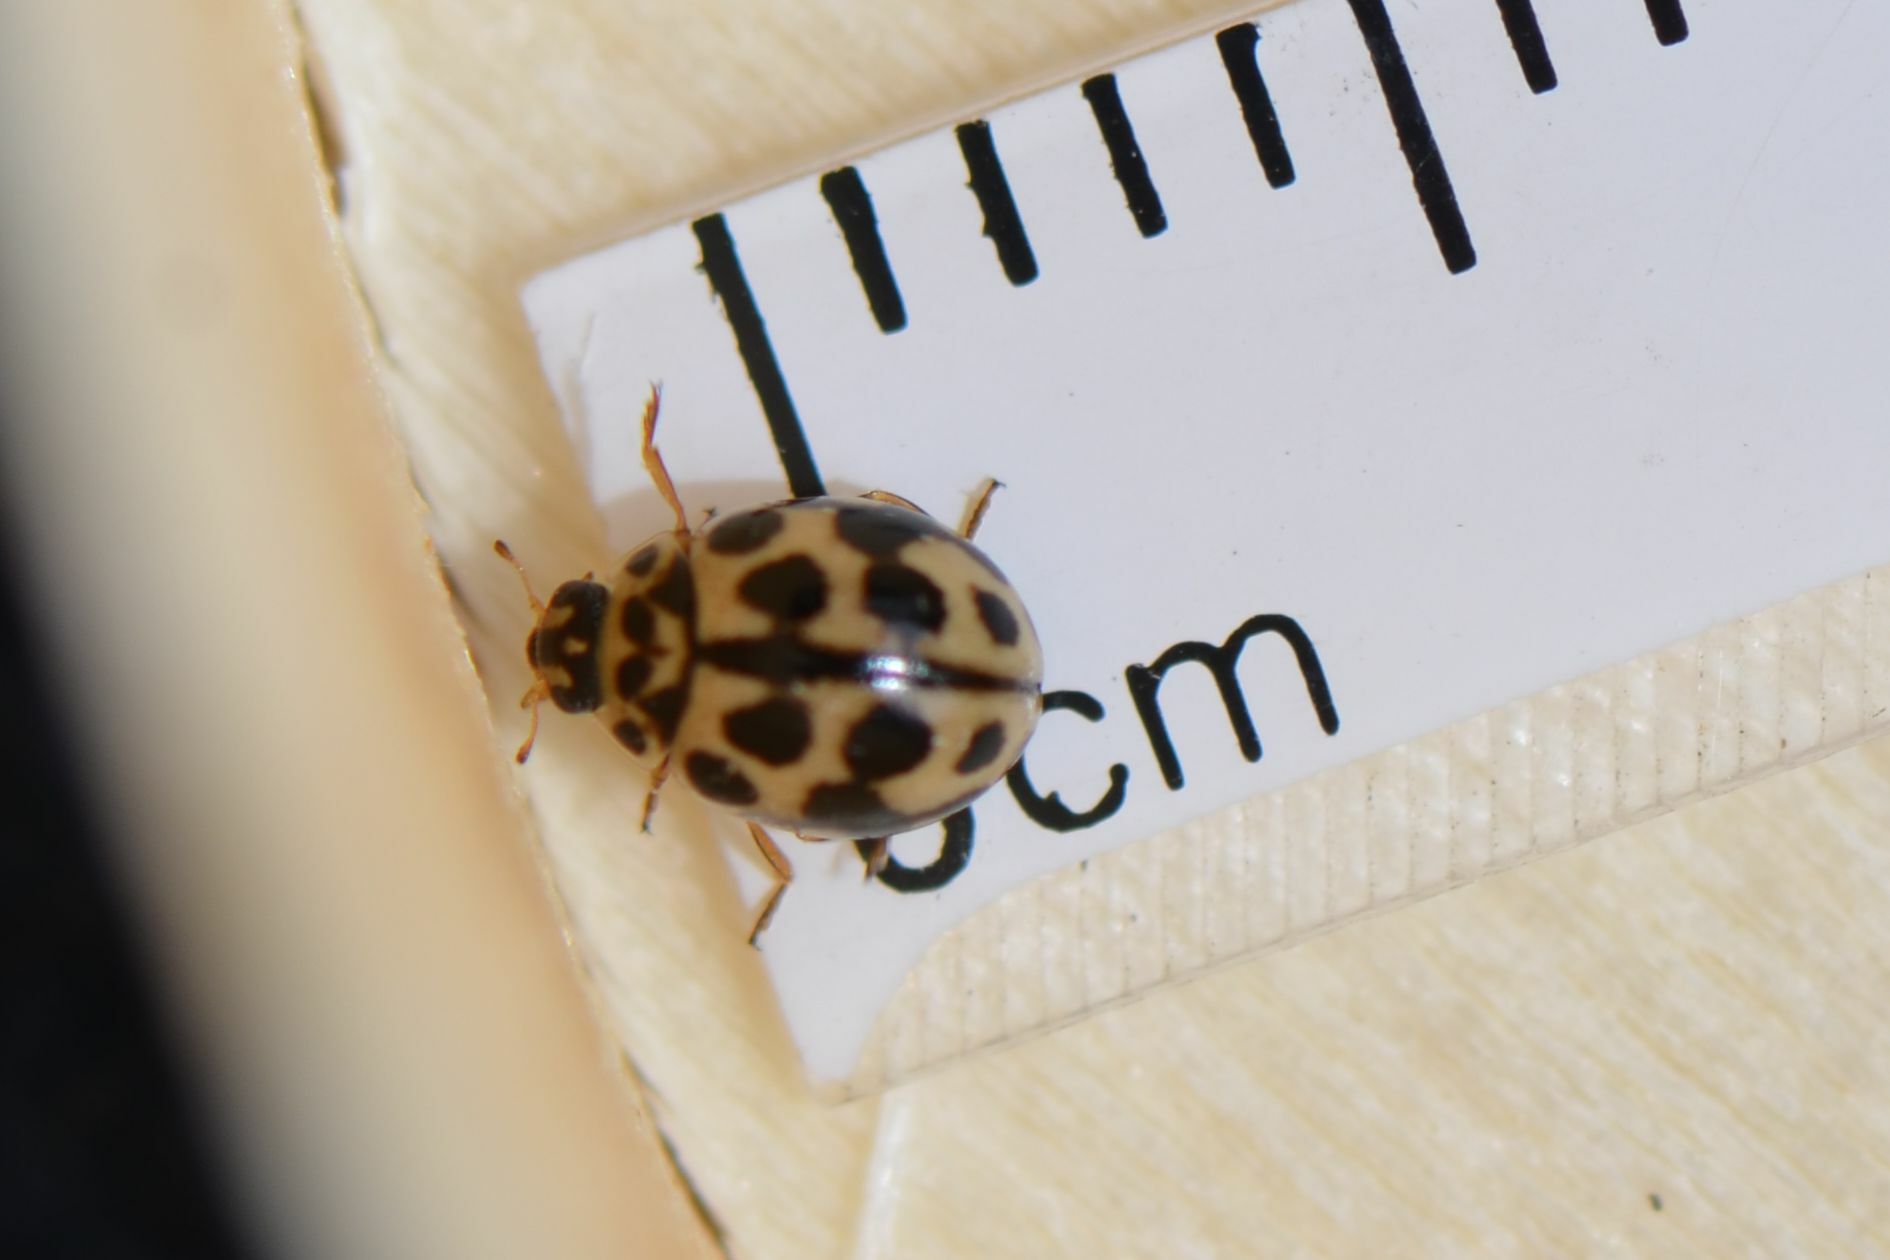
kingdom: Animalia
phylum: Arthropoda
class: Insecta
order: Coleoptera
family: Coccinellidae
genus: Tytthaspis
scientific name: Tytthaspis sedecimpunctata
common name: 16-spot ladybird
